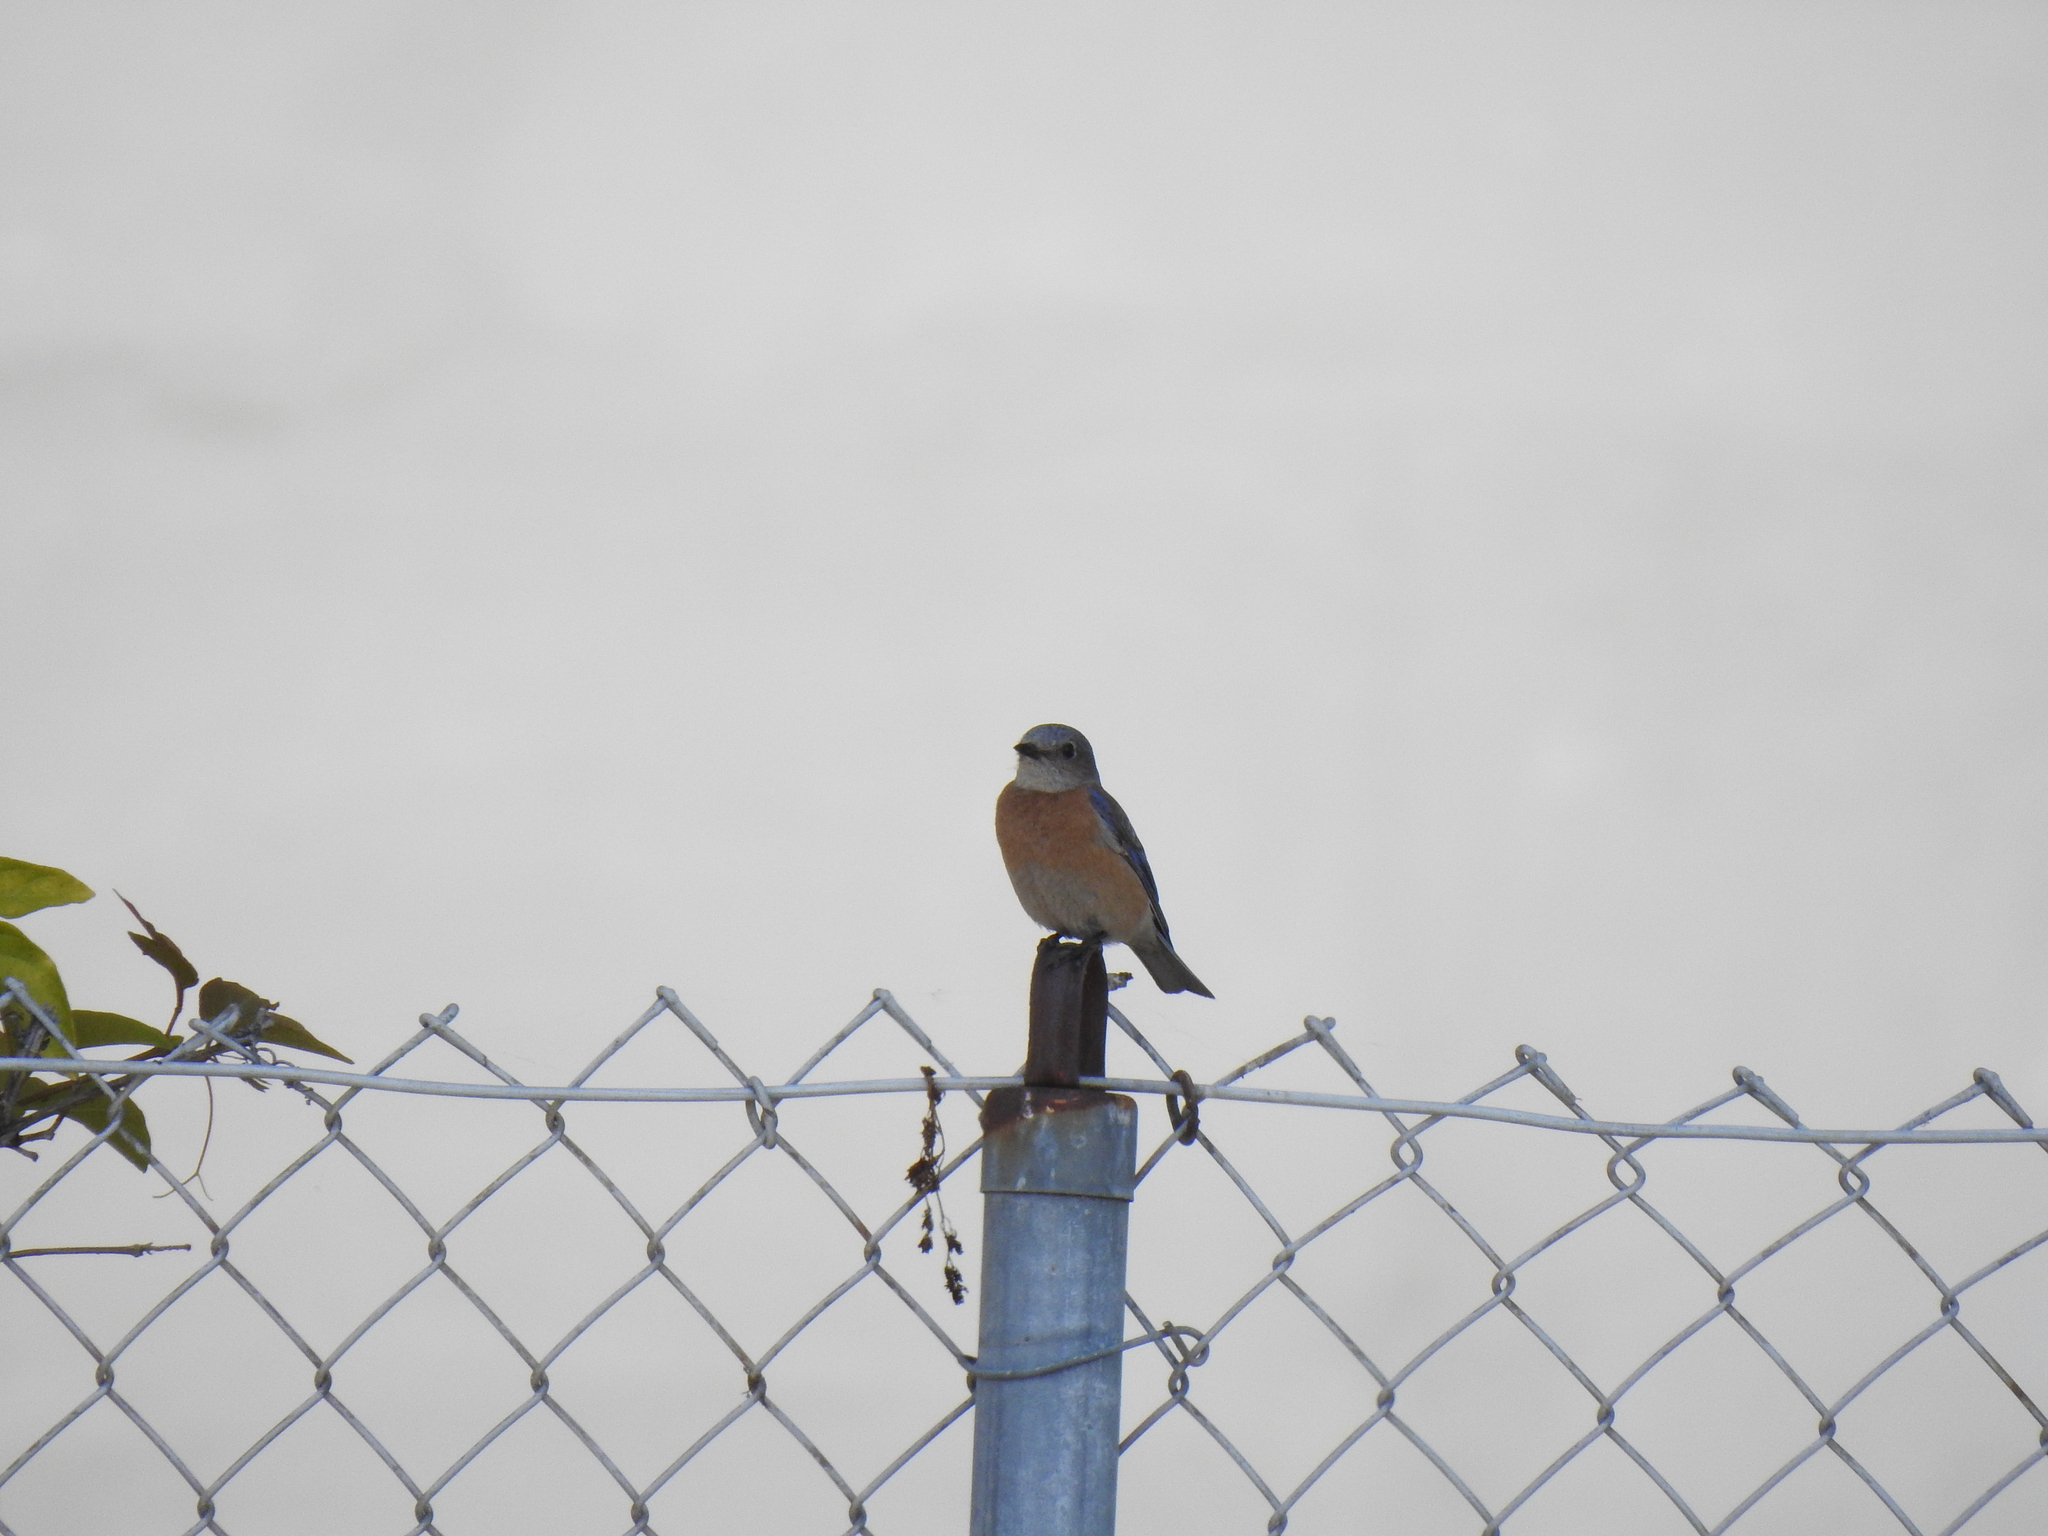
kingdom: Animalia
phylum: Chordata
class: Aves
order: Passeriformes
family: Turdidae
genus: Sialia
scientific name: Sialia mexicana
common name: Western bluebird
